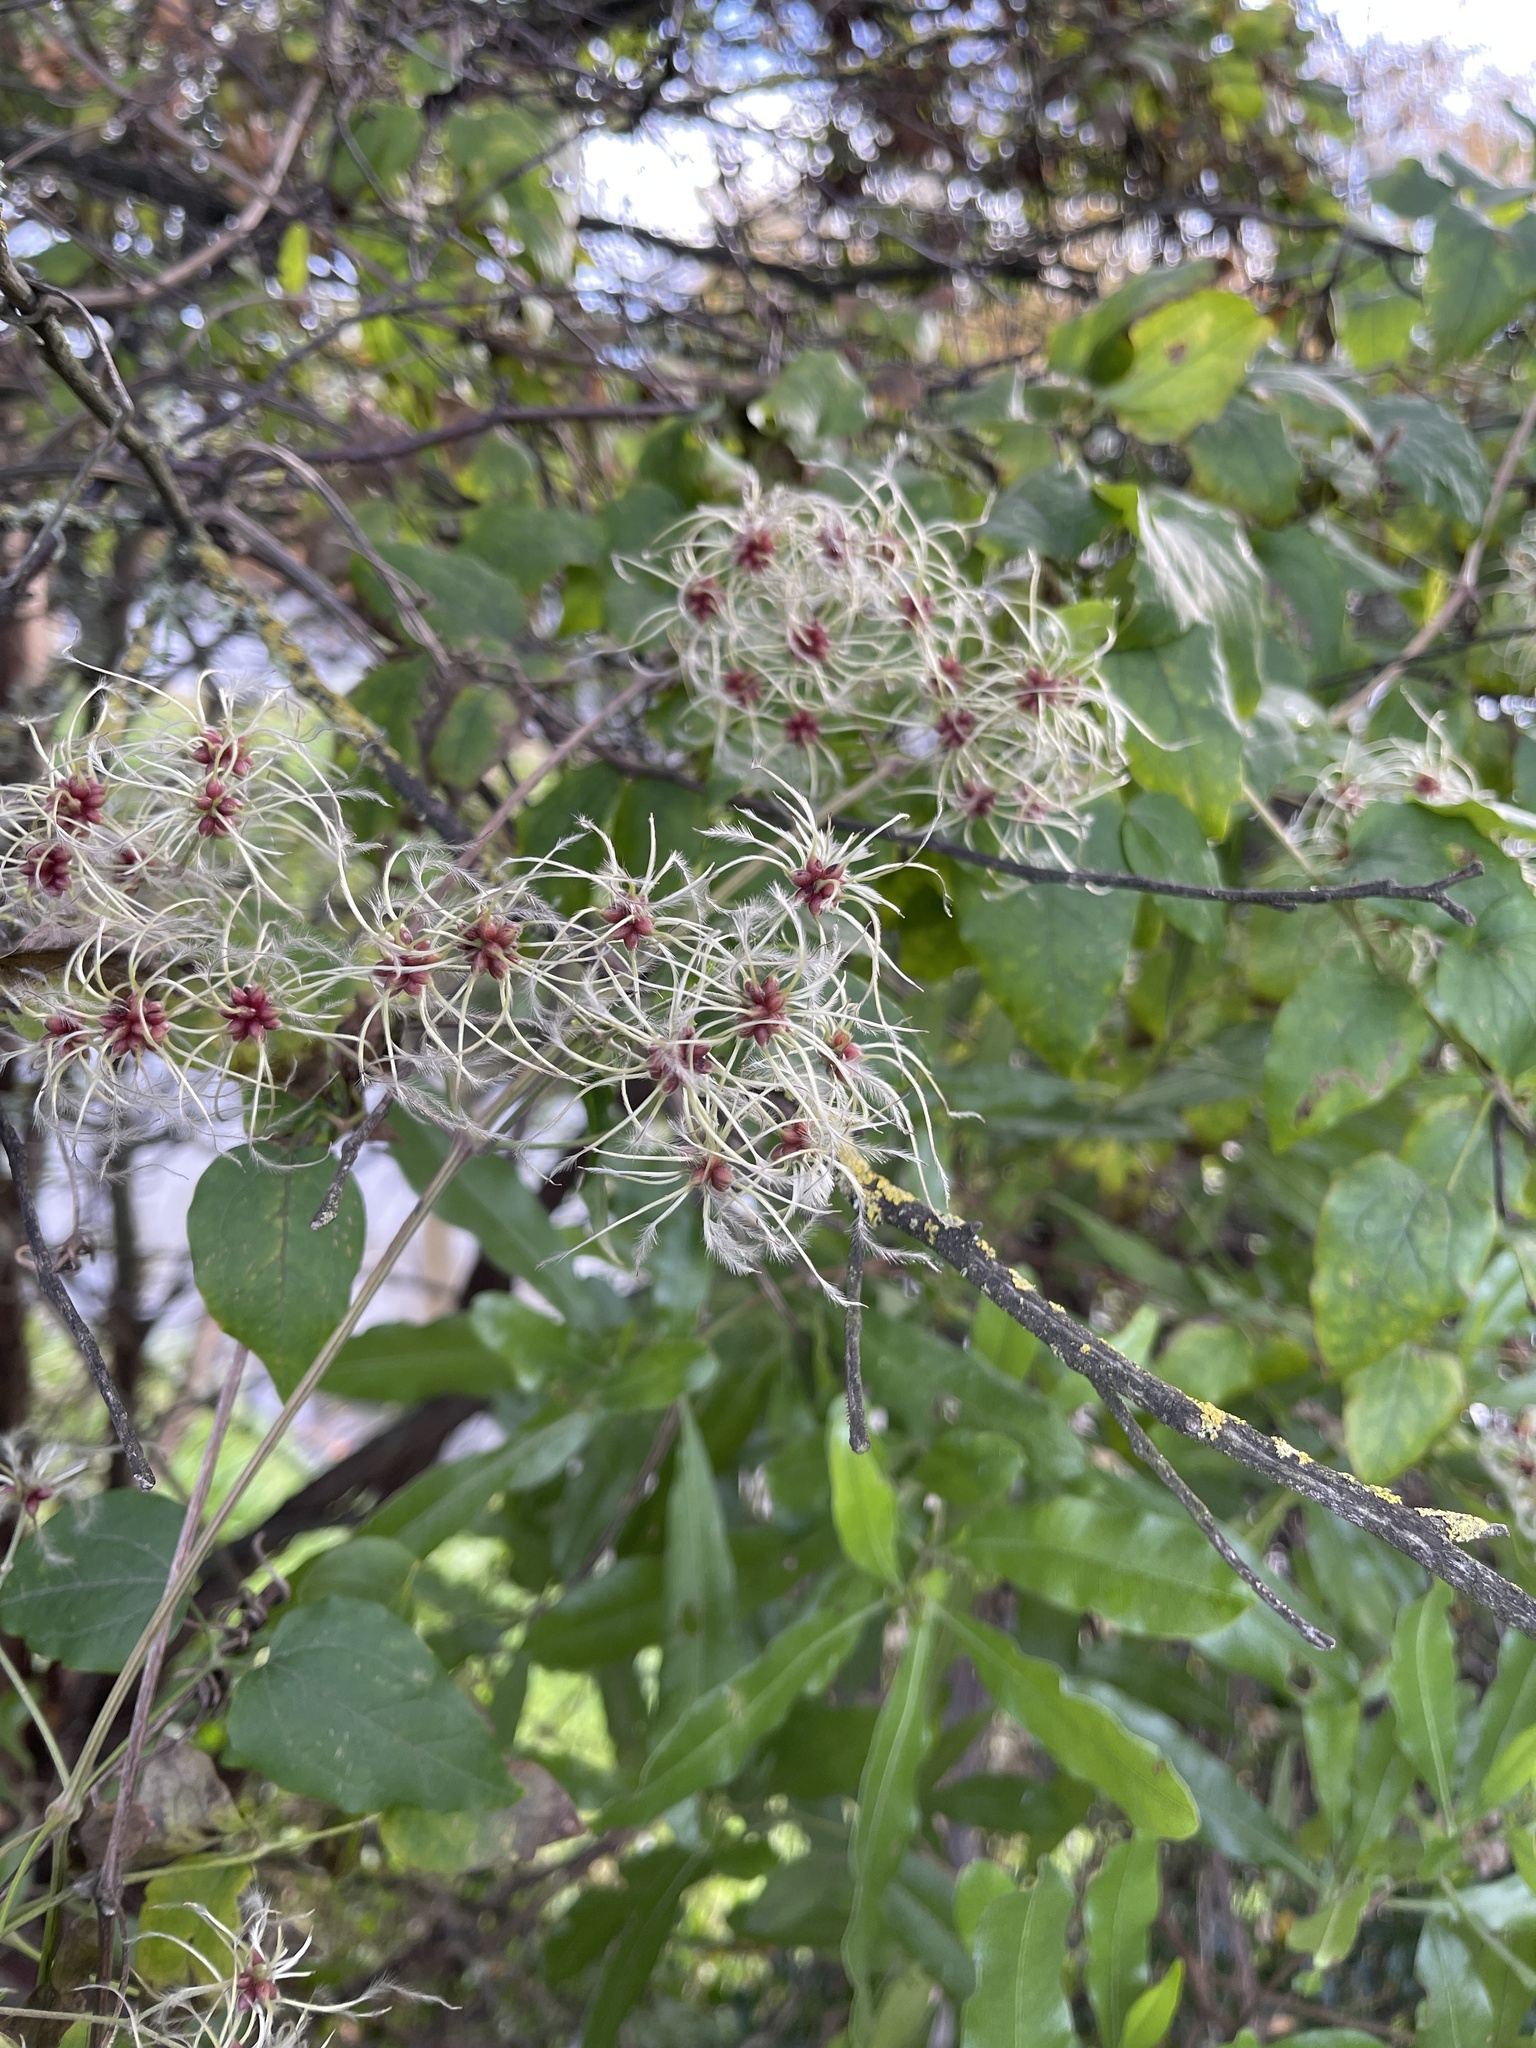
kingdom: Plantae
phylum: Tracheophyta
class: Magnoliopsida
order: Ranunculales
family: Ranunculaceae
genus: Clematis
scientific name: Clematis vitalba
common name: Evergreen clematis
